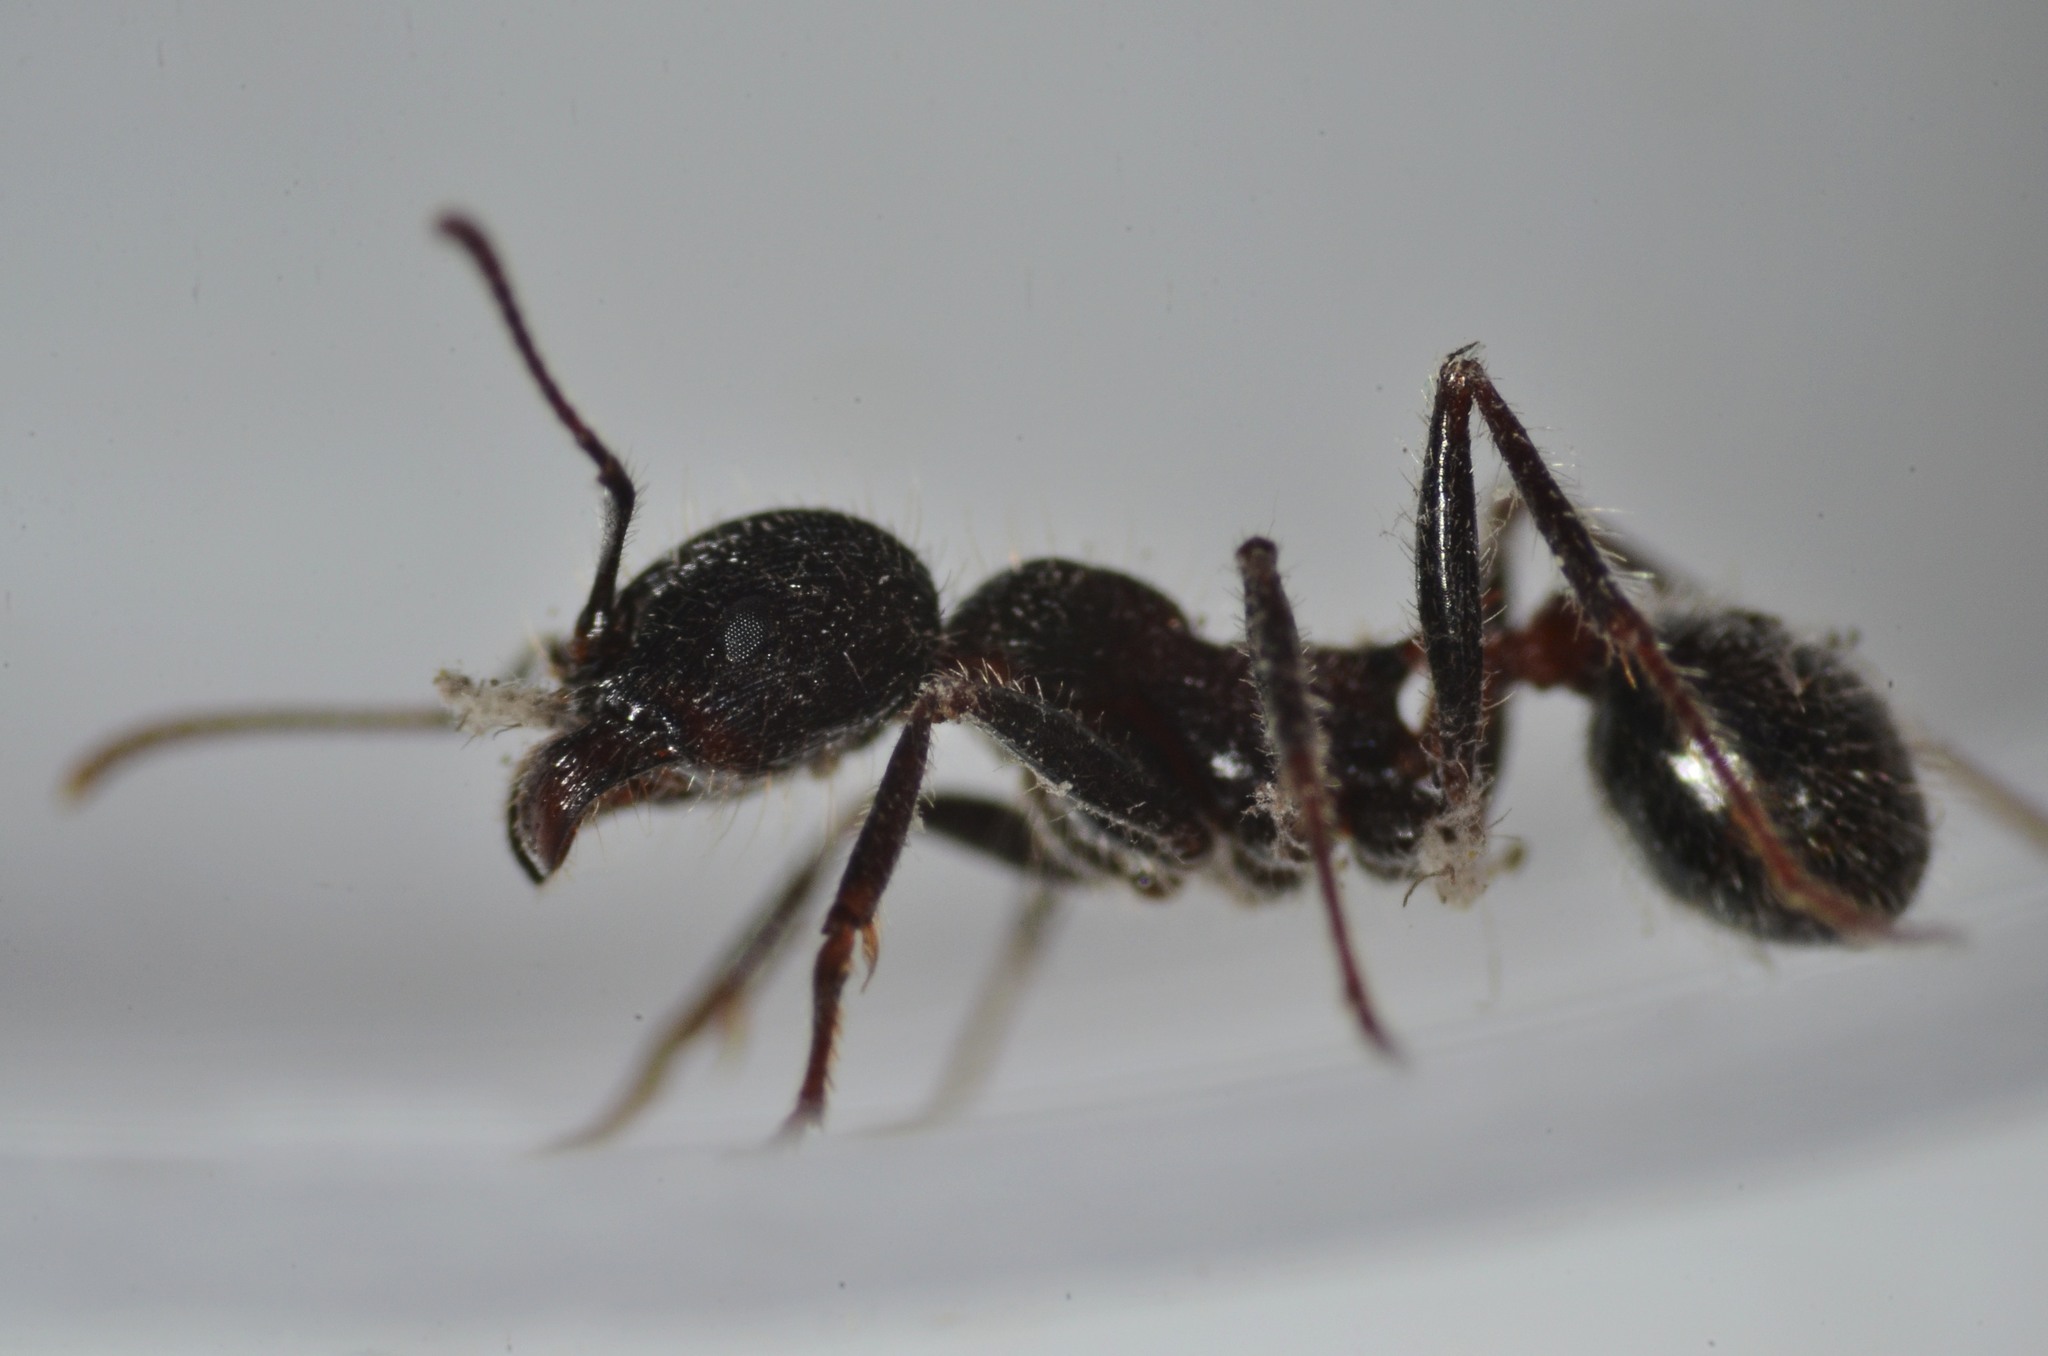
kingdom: Animalia
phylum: Arthropoda
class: Insecta
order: Hymenoptera
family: Formicidae
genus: Veromessor
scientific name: Veromessor andrei
